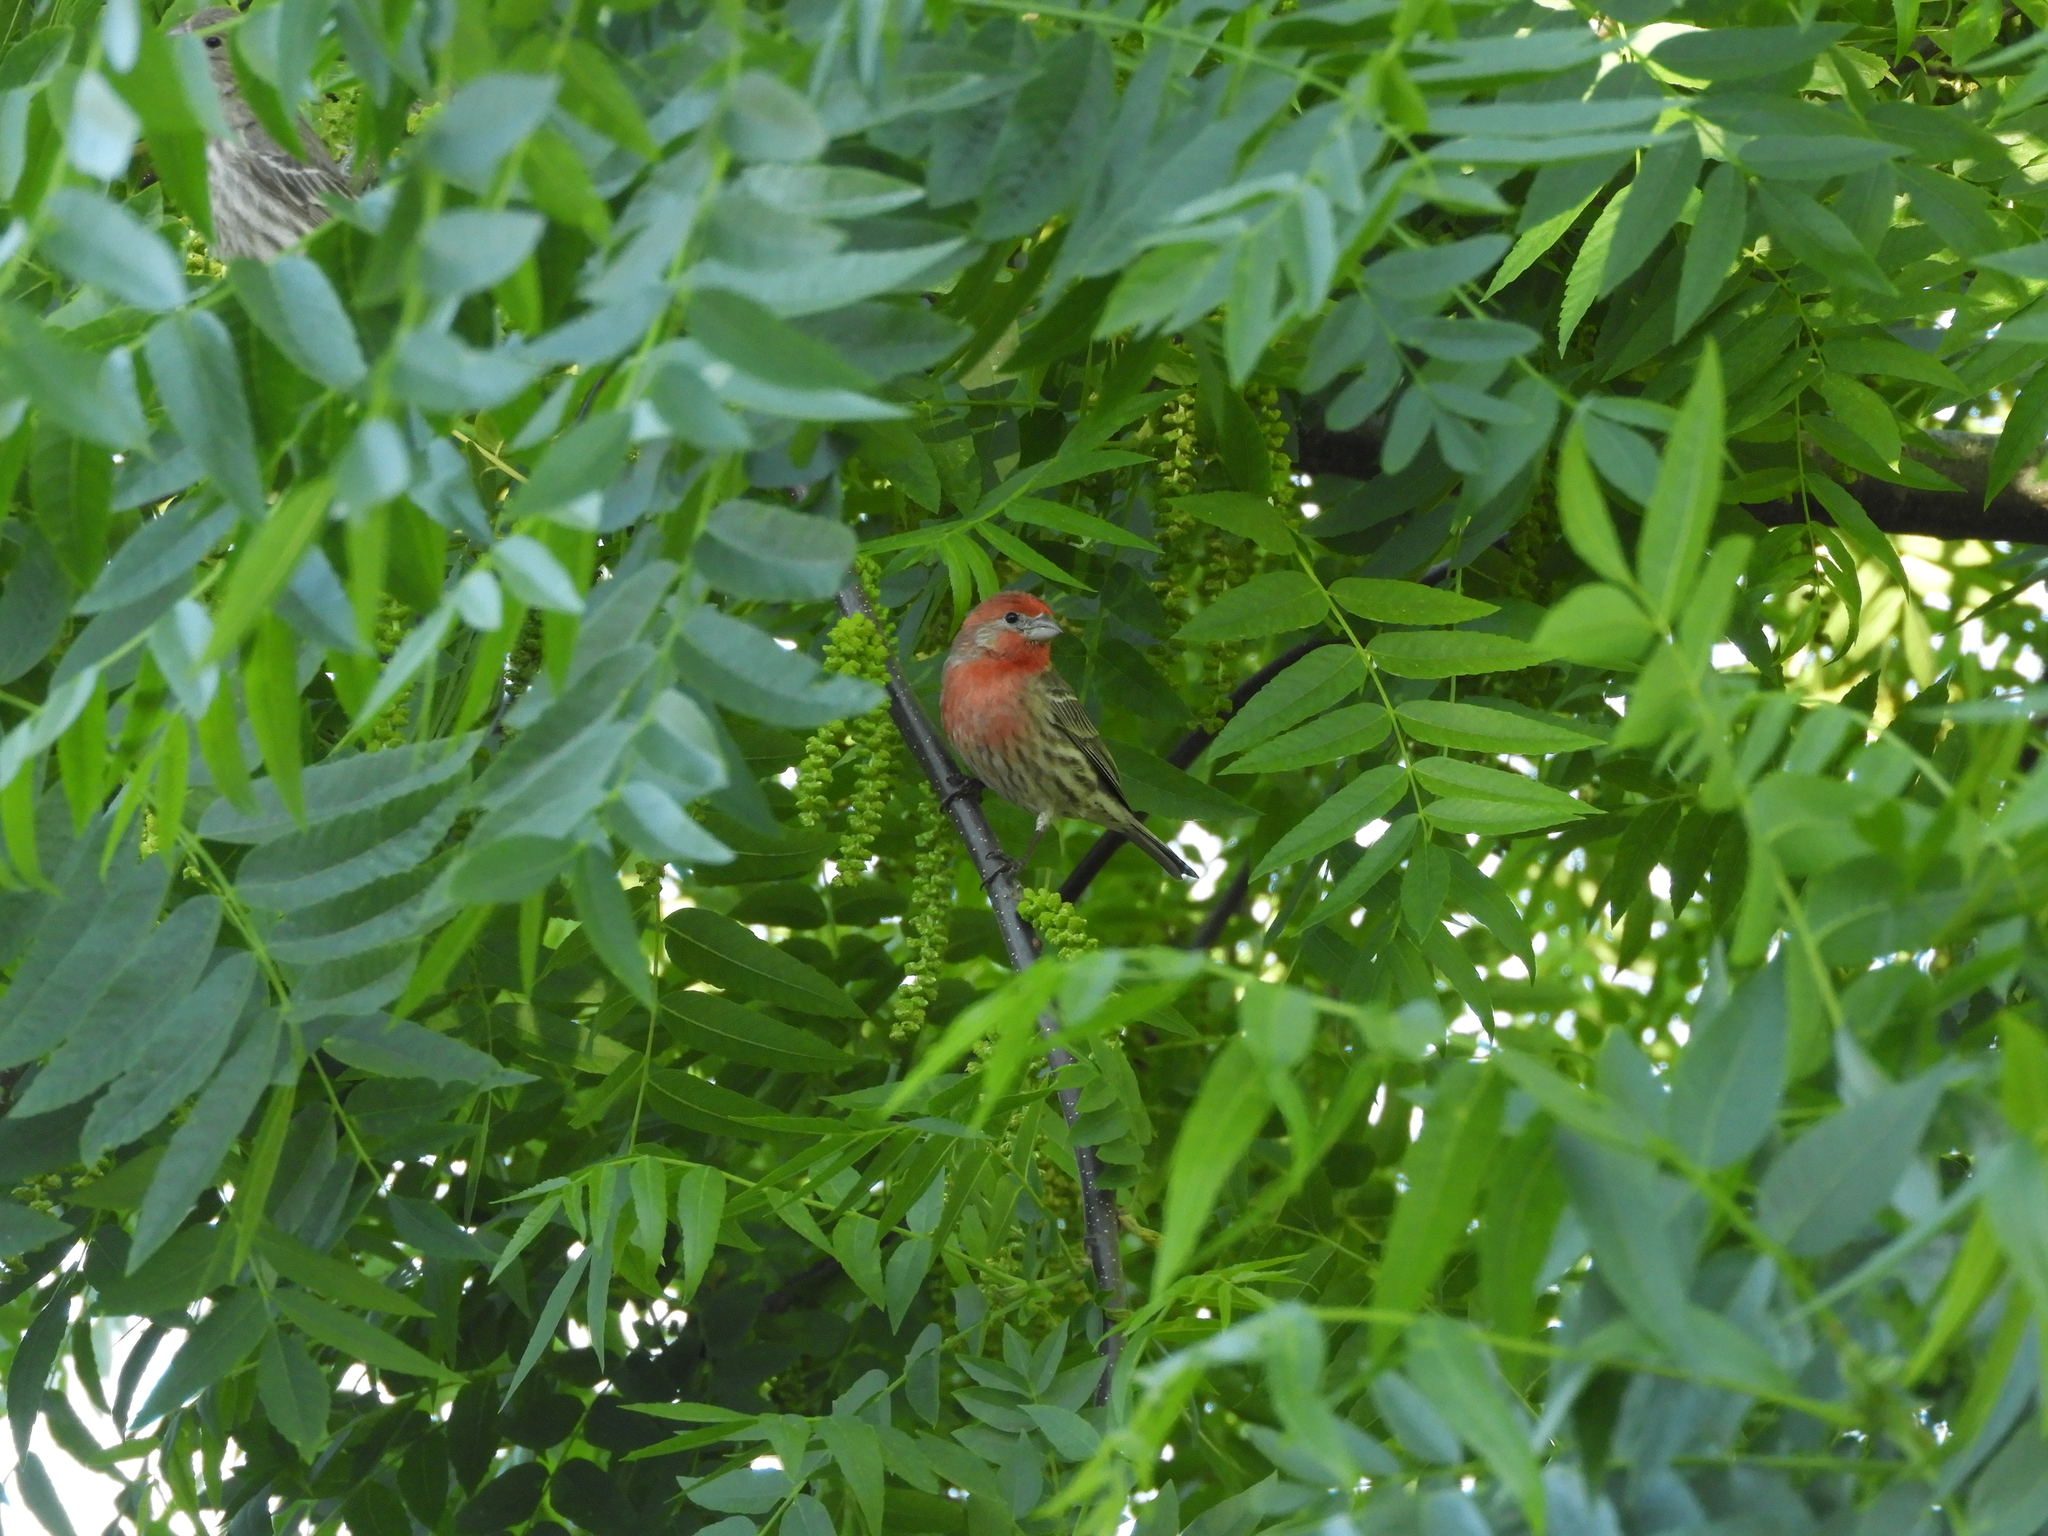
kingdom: Animalia
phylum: Chordata
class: Aves
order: Passeriformes
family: Fringillidae
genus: Haemorhous
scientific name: Haemorhous mexicanus
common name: House finch
